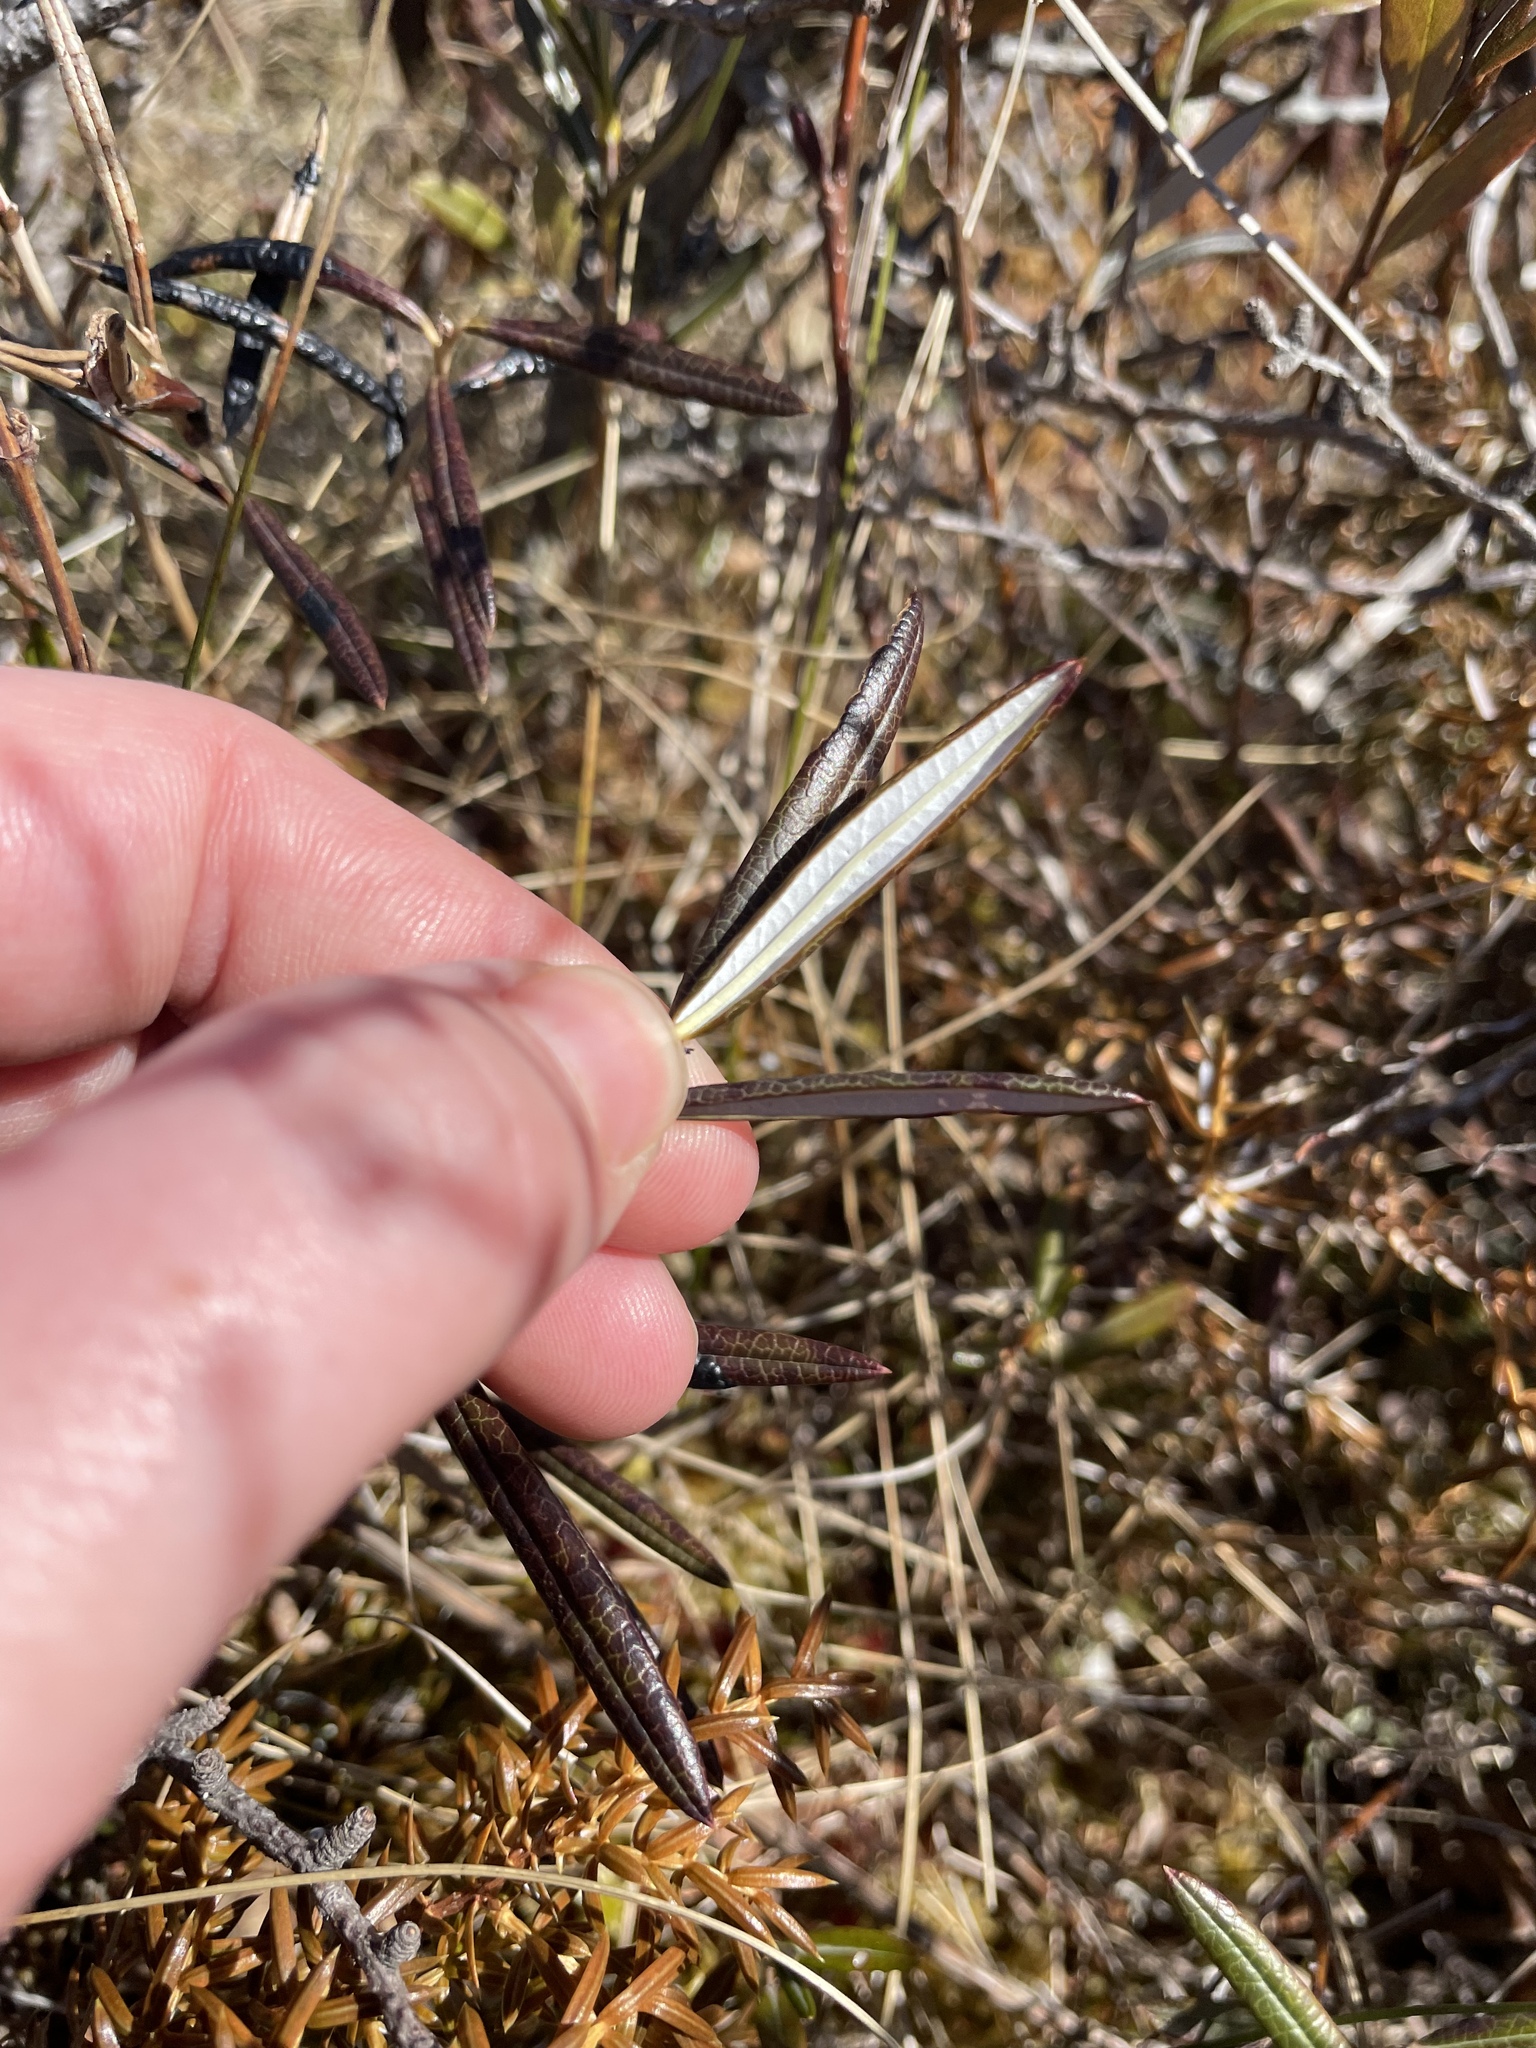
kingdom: Plantae
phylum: Tracheophyta
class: Magnoliopsida
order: Ericales
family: Ericaceae
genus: Andromeda
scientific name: Andromeda polifolia
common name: Bog-rosemary
